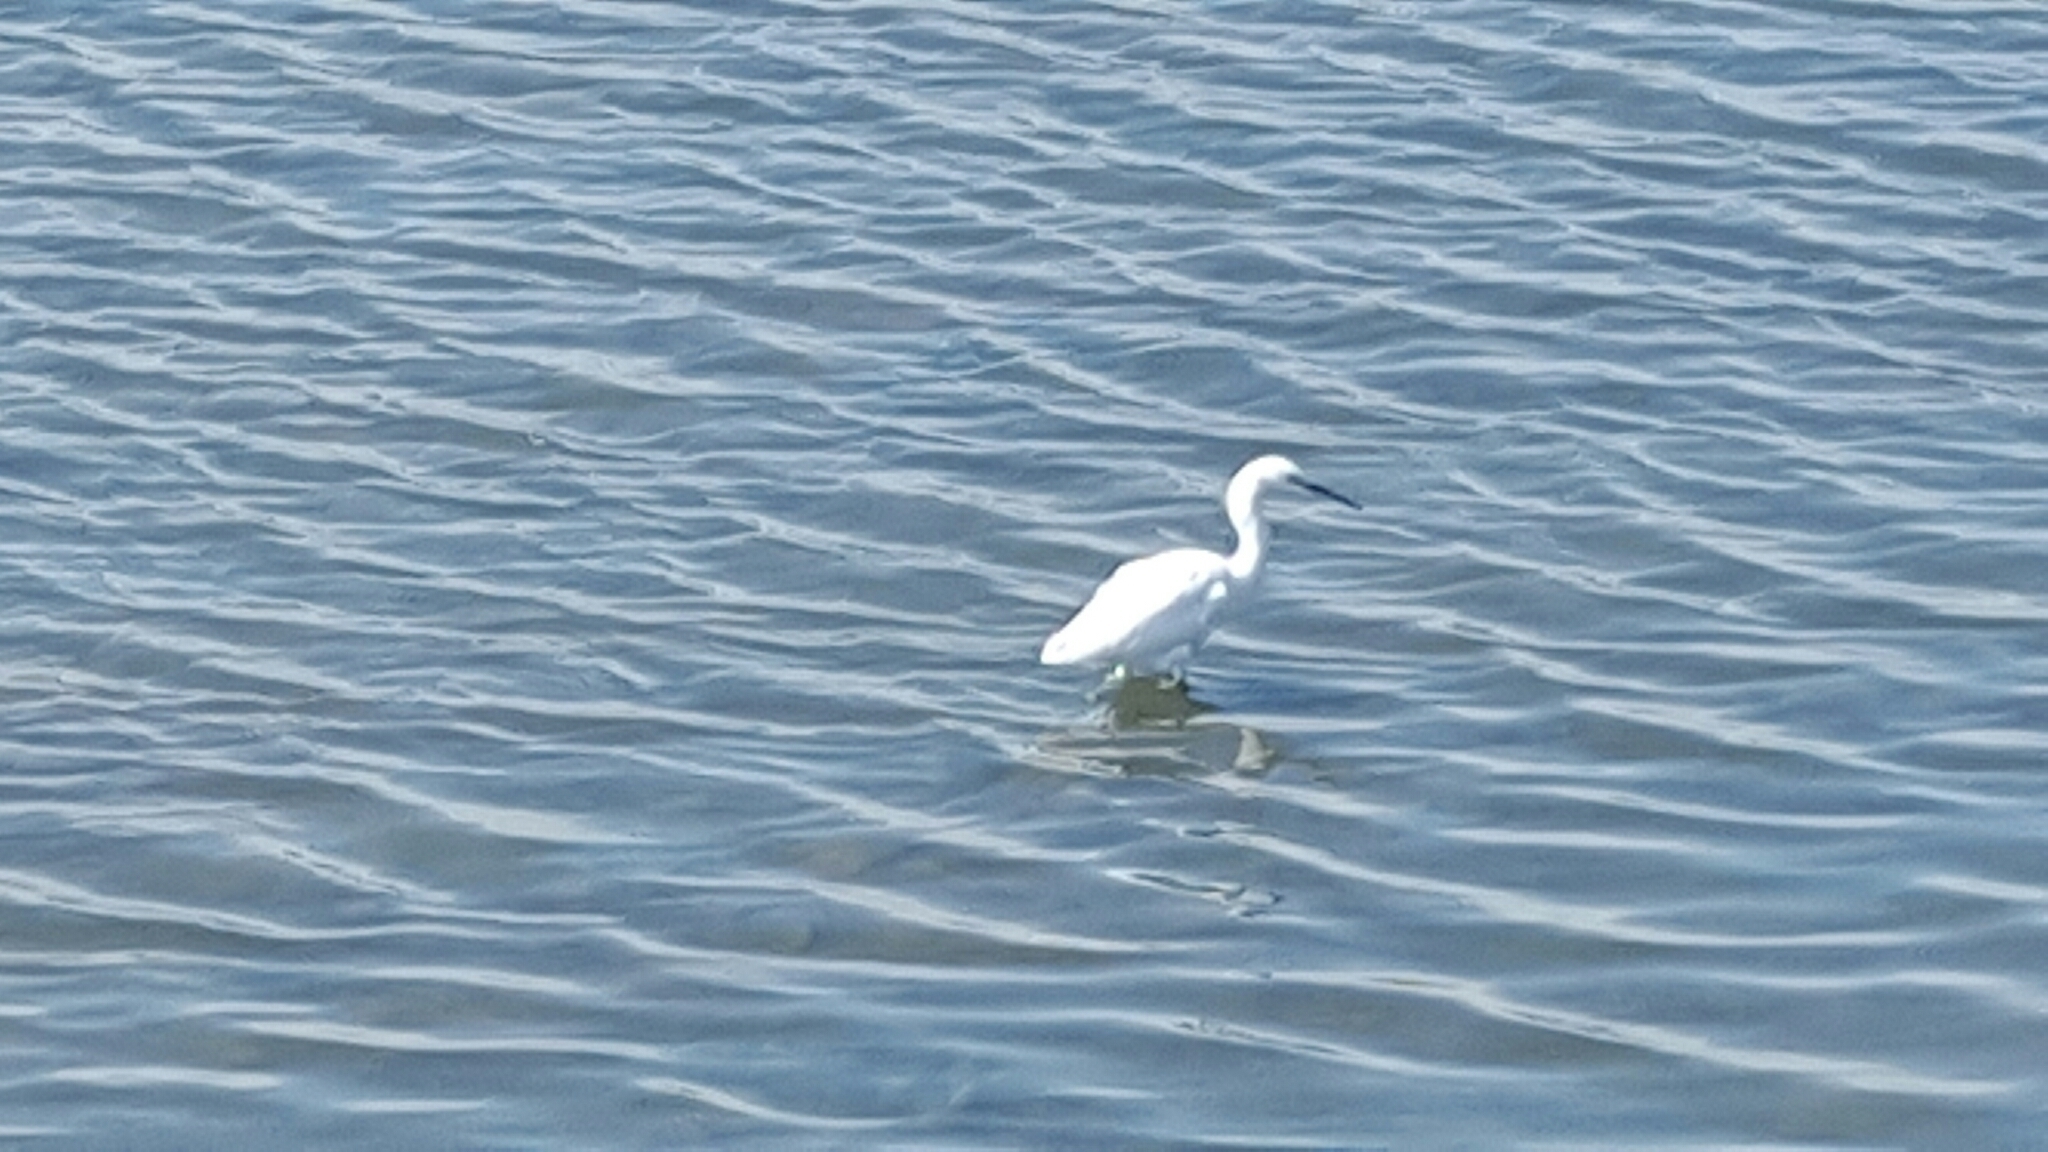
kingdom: Animalia
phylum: Chordata
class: Aves
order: Pelecaniformes
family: Ardeidae
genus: Egretta
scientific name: Egretta thula
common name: Snowy egret
